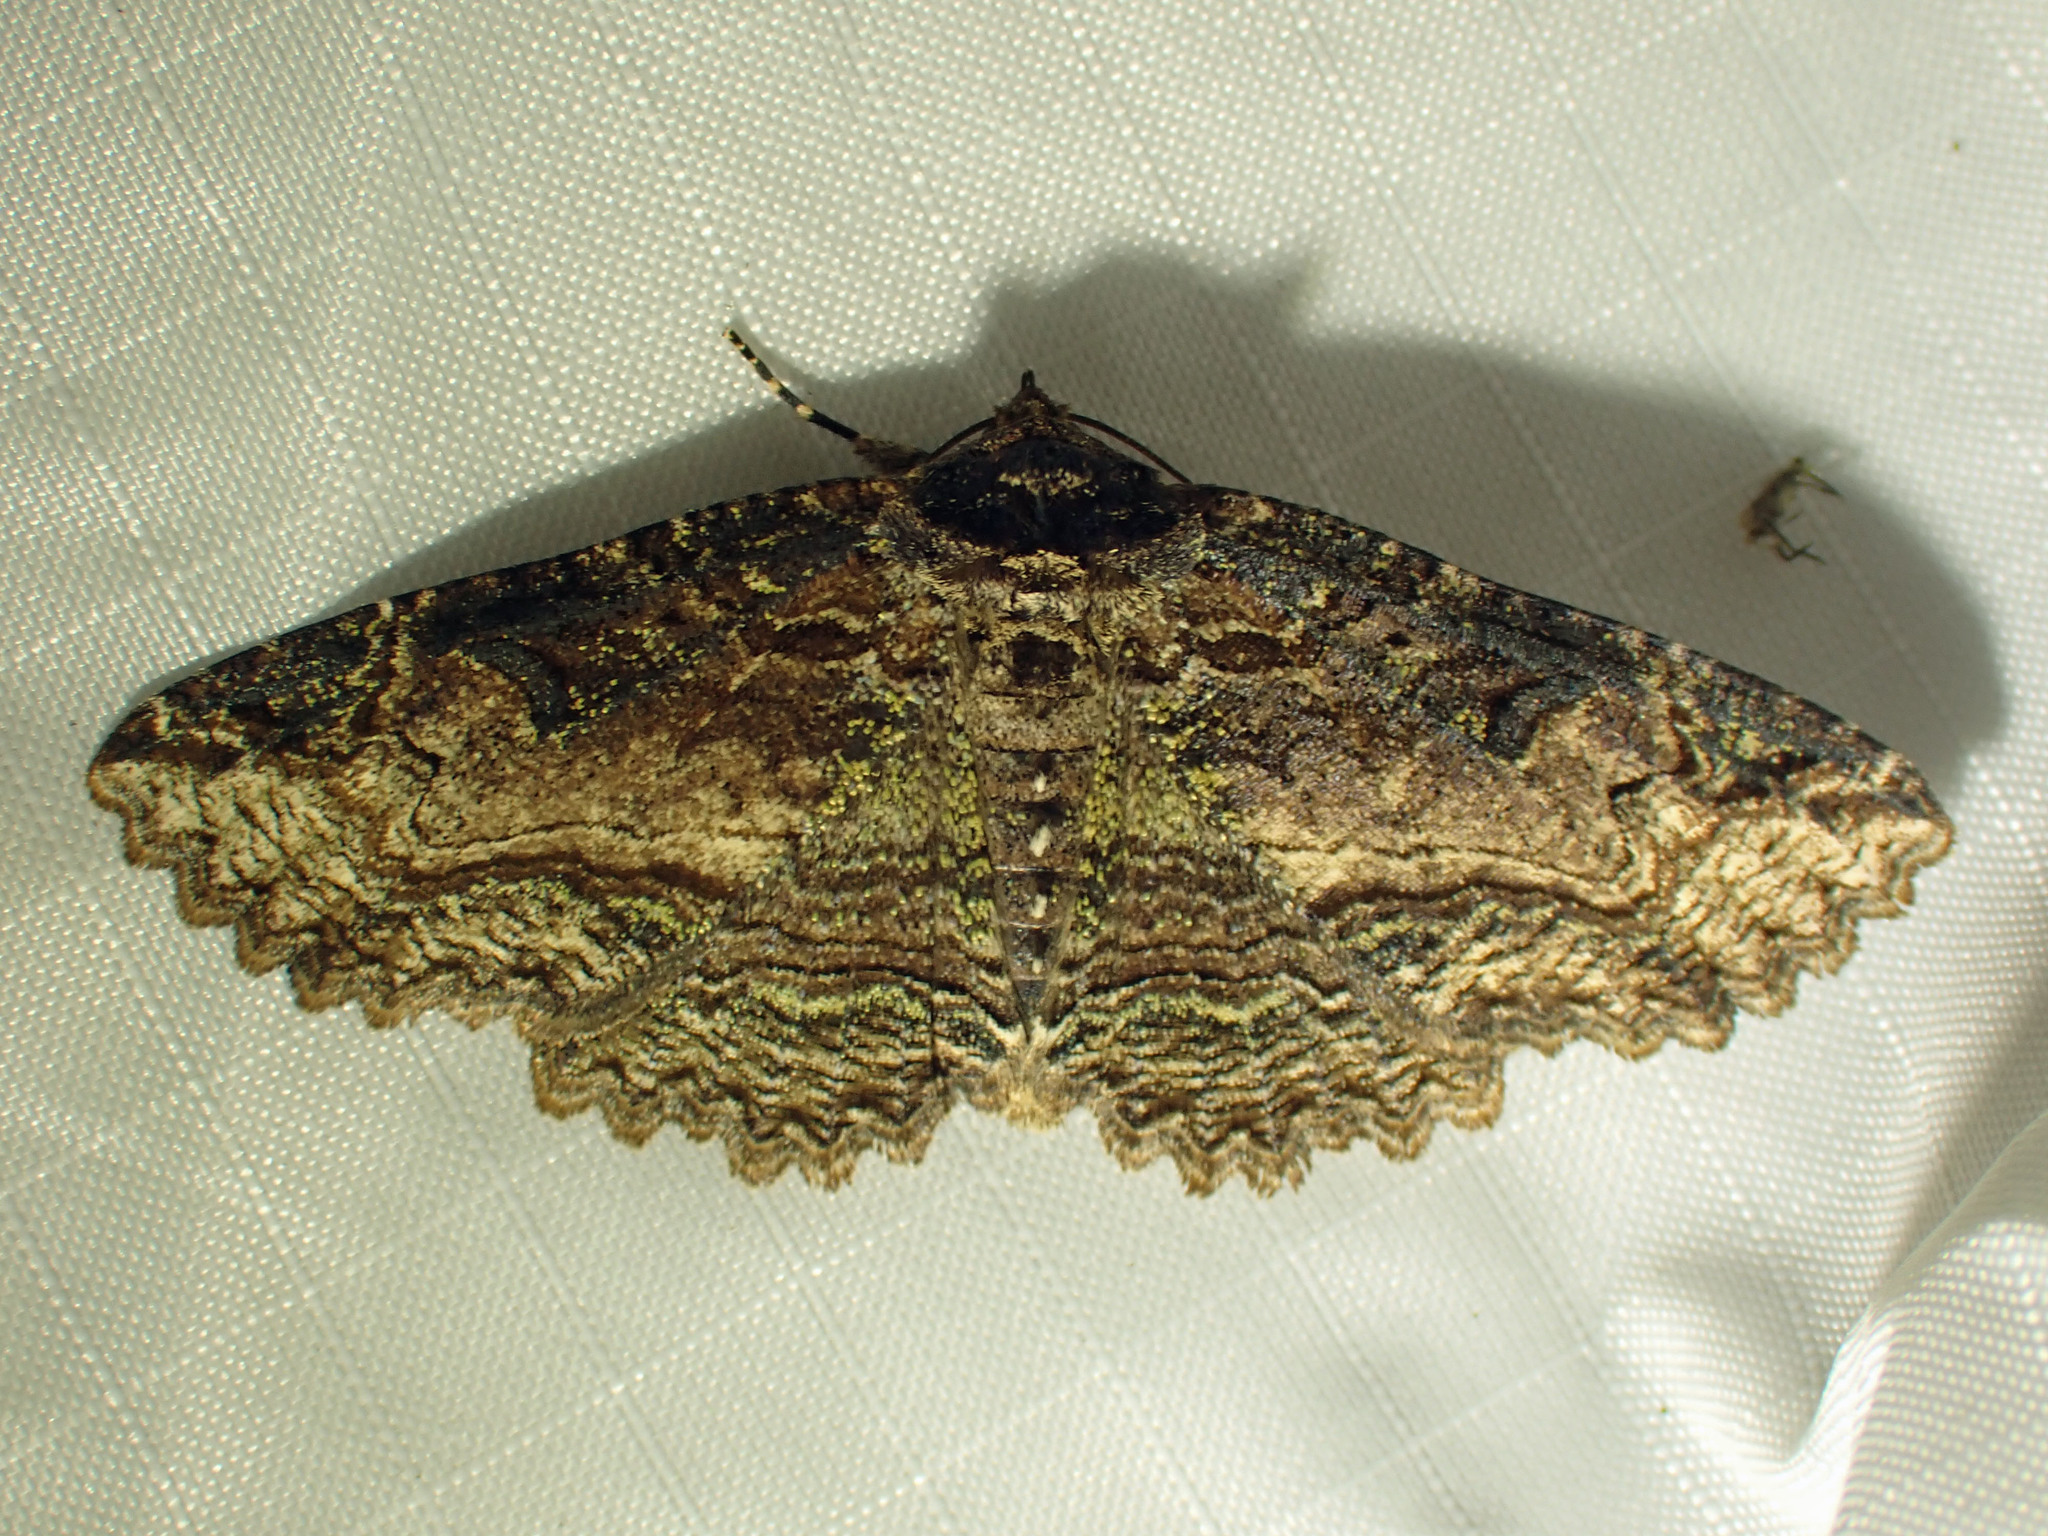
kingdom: Animalia
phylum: Arthropoda
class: Insecta
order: Lepidoptera
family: Erebidae
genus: Zale
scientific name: Zale minerea
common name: Colorful zale moth
